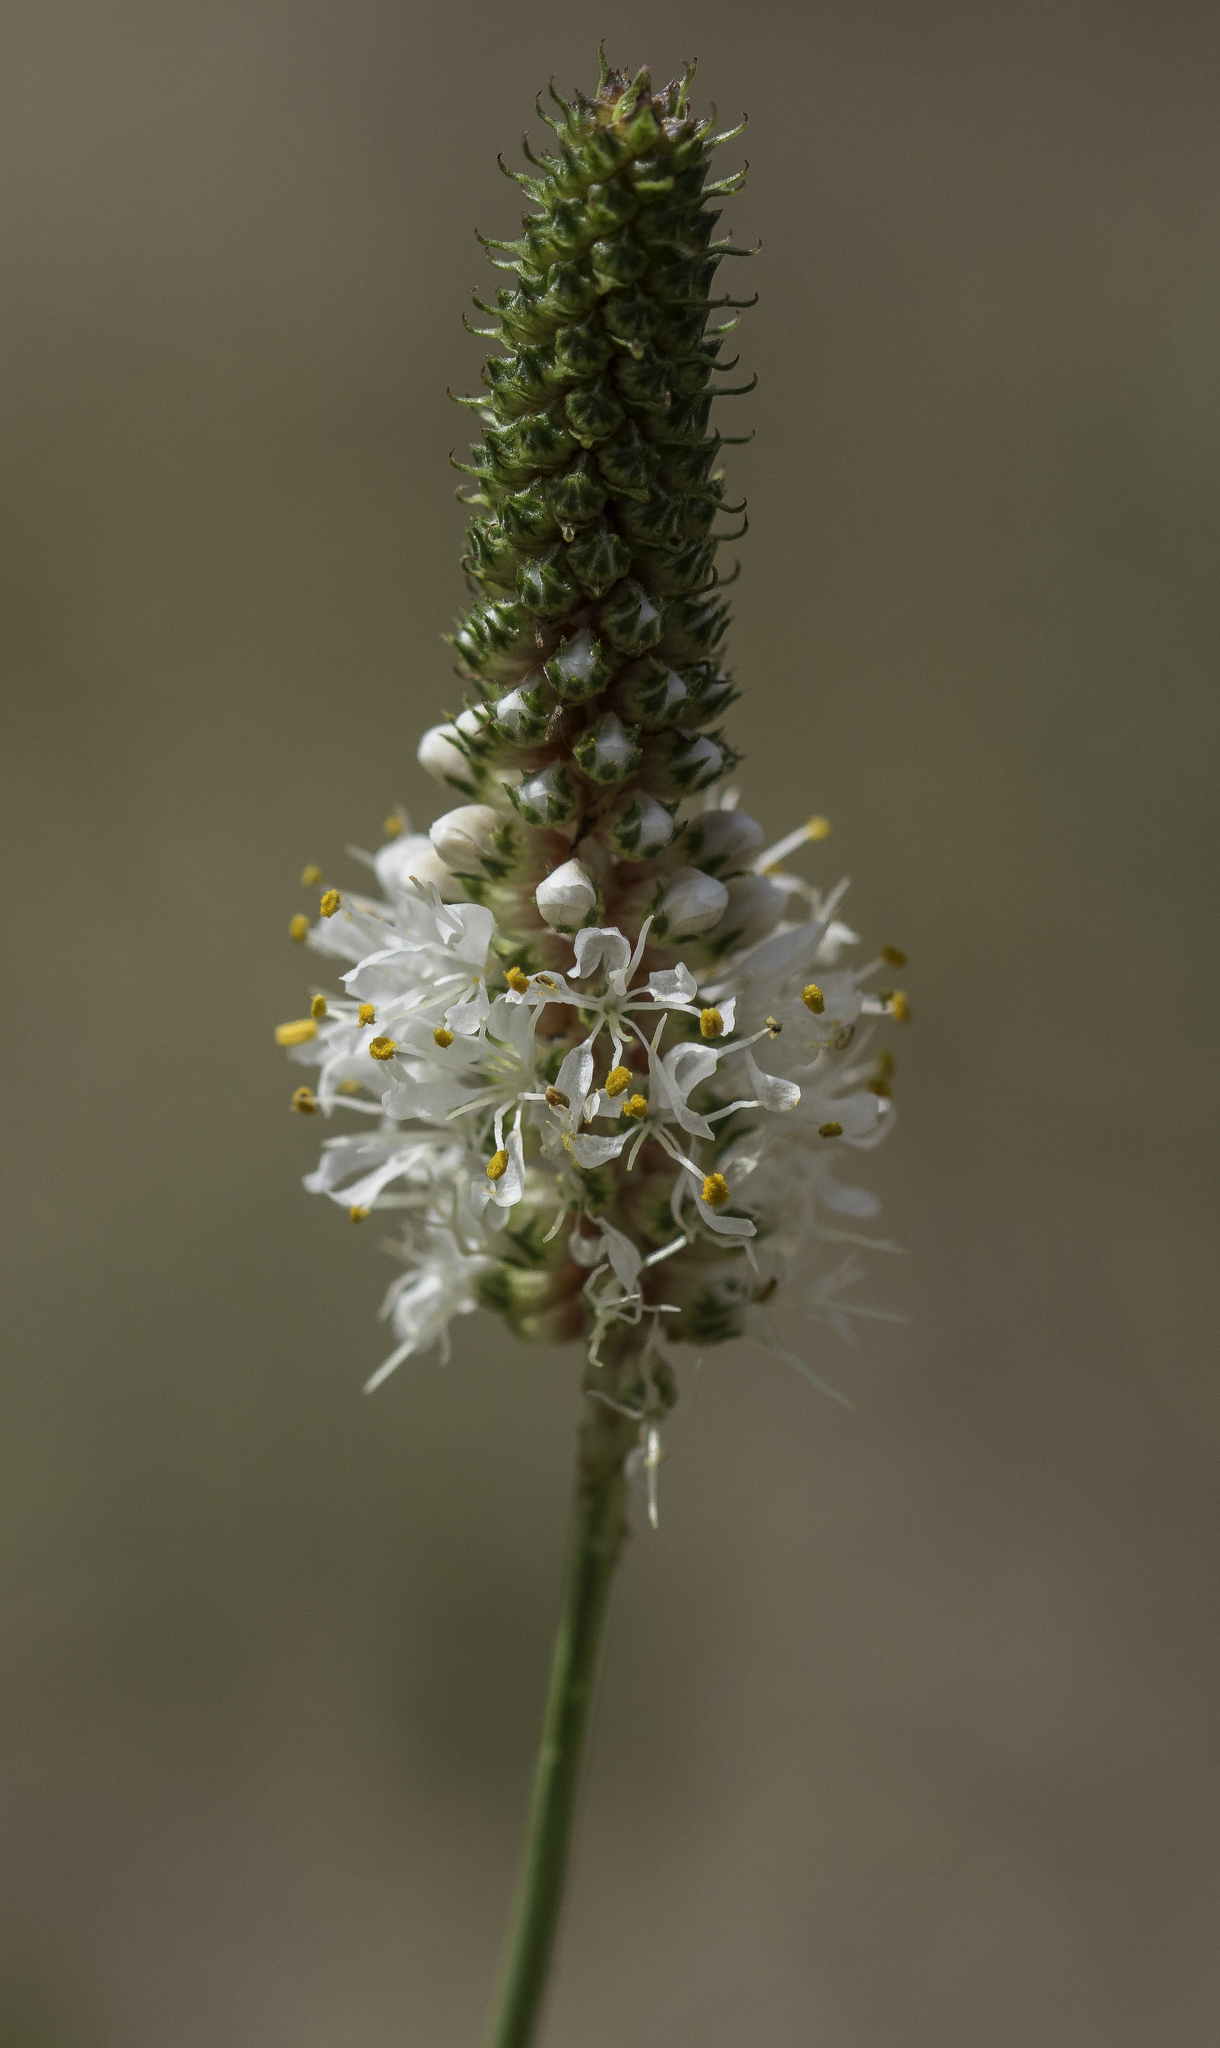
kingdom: Plantae
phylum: Tracheophyta
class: Magnoliopsida
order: Fabales
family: Fabaceae
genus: Dalea
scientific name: Dalea candida
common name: White prairie-clover
